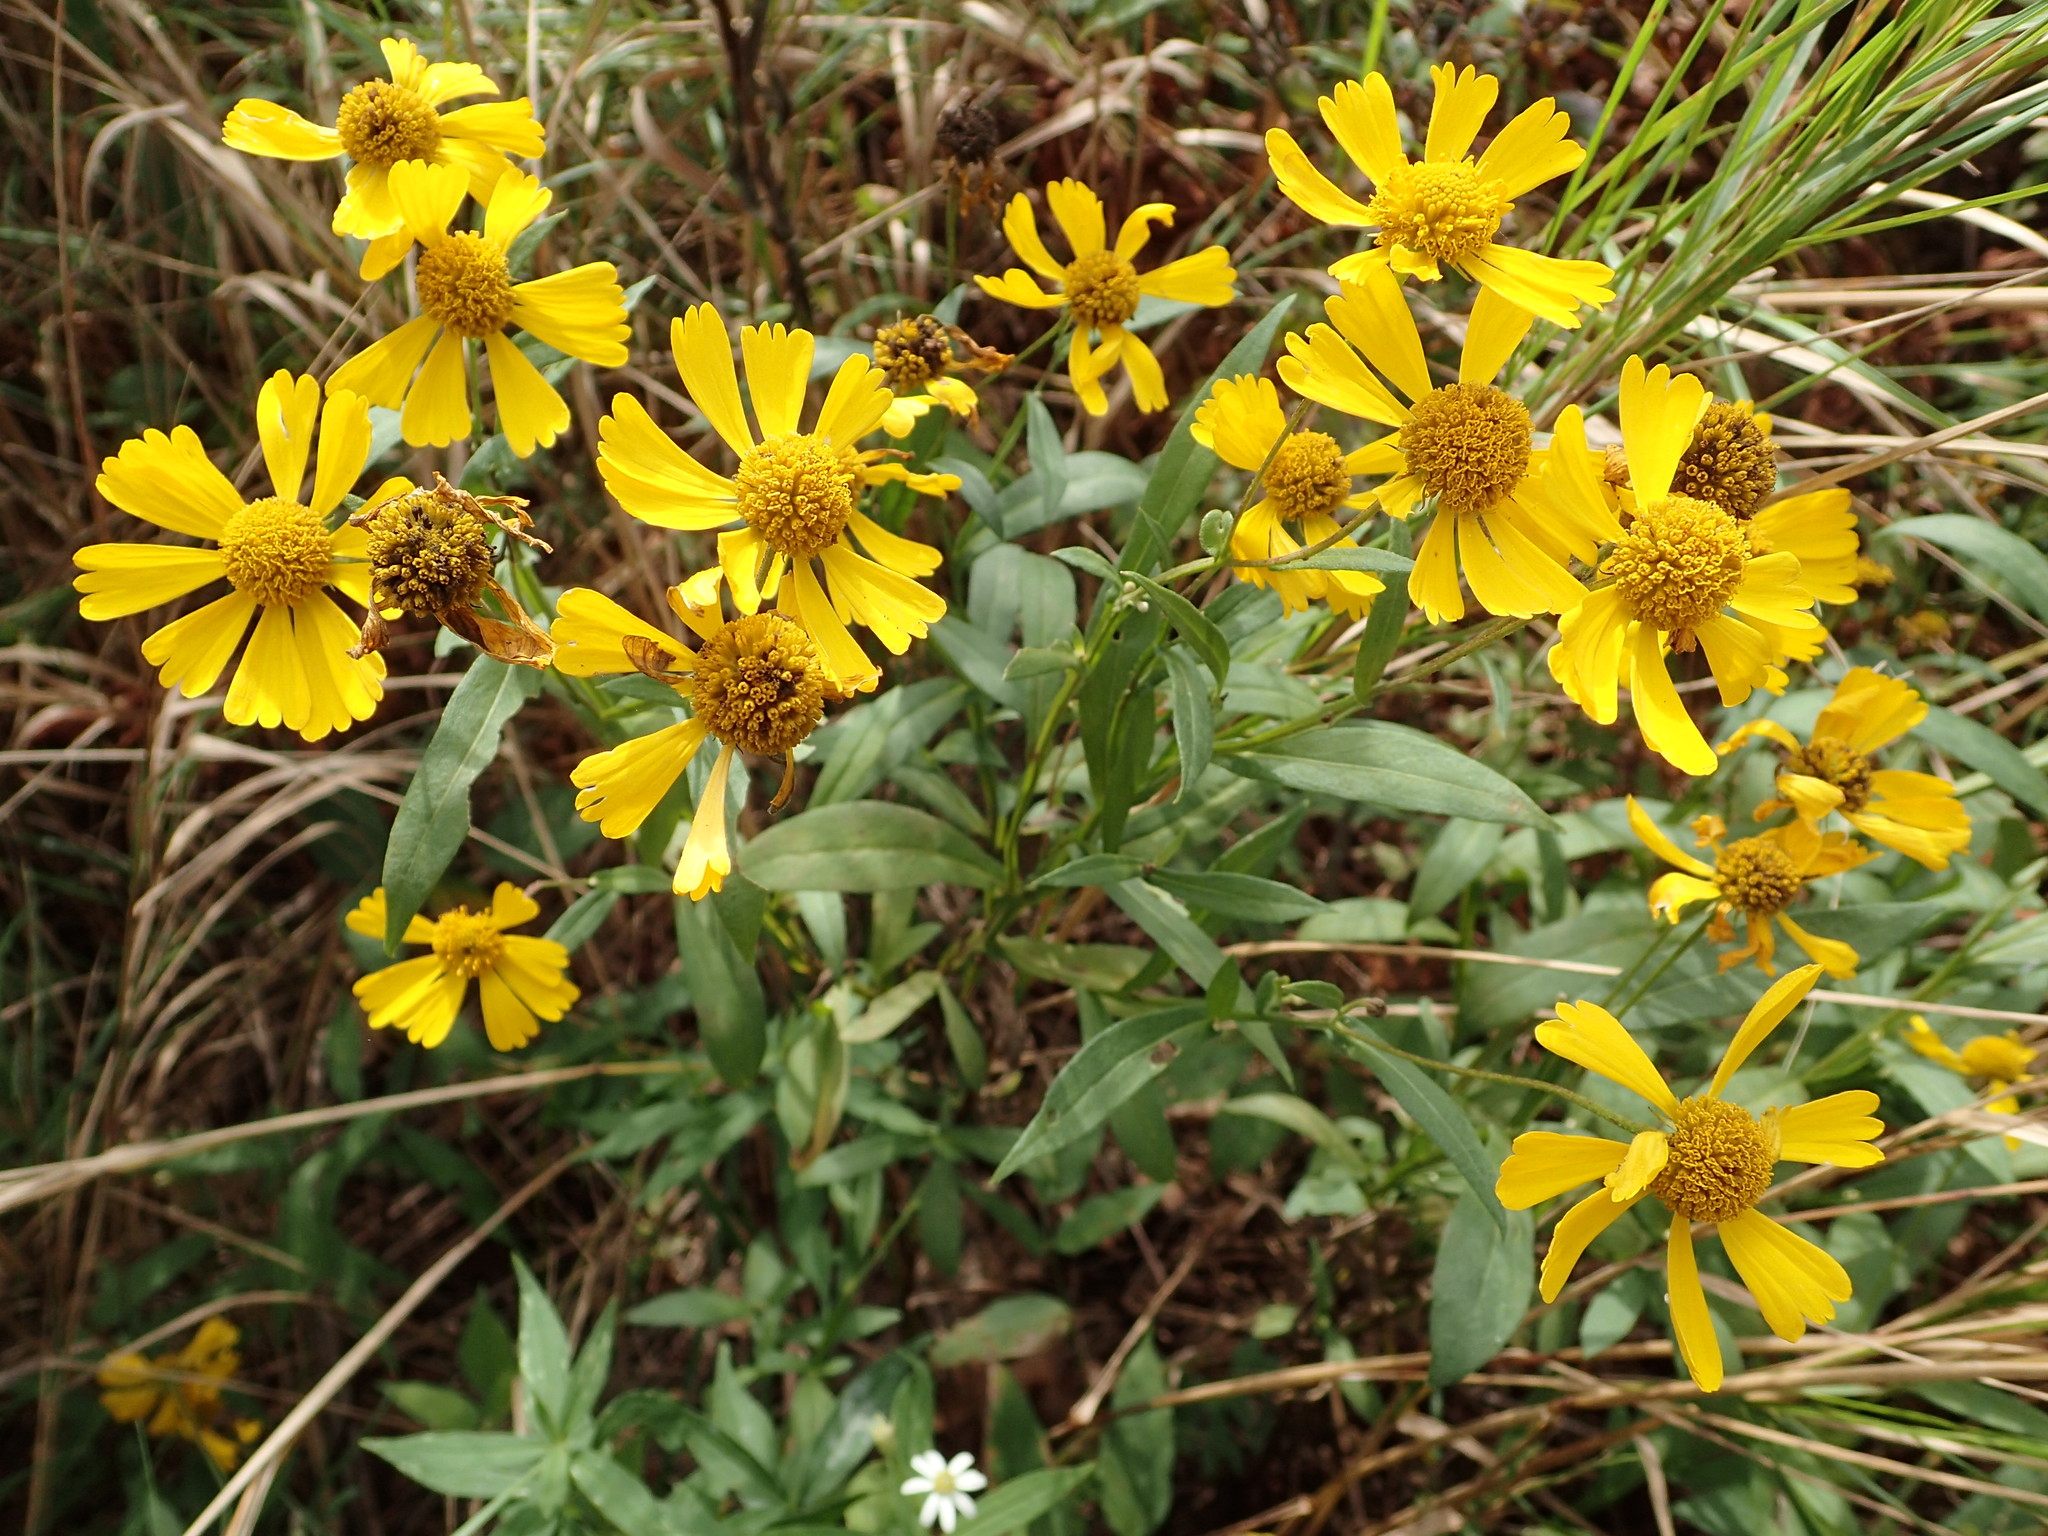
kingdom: Plantae
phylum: Tracheophyta
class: Magnoliopsida
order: Asterales
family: Asteraceae
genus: Helenium
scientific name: Helenium autumnale
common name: Sneezeweed
